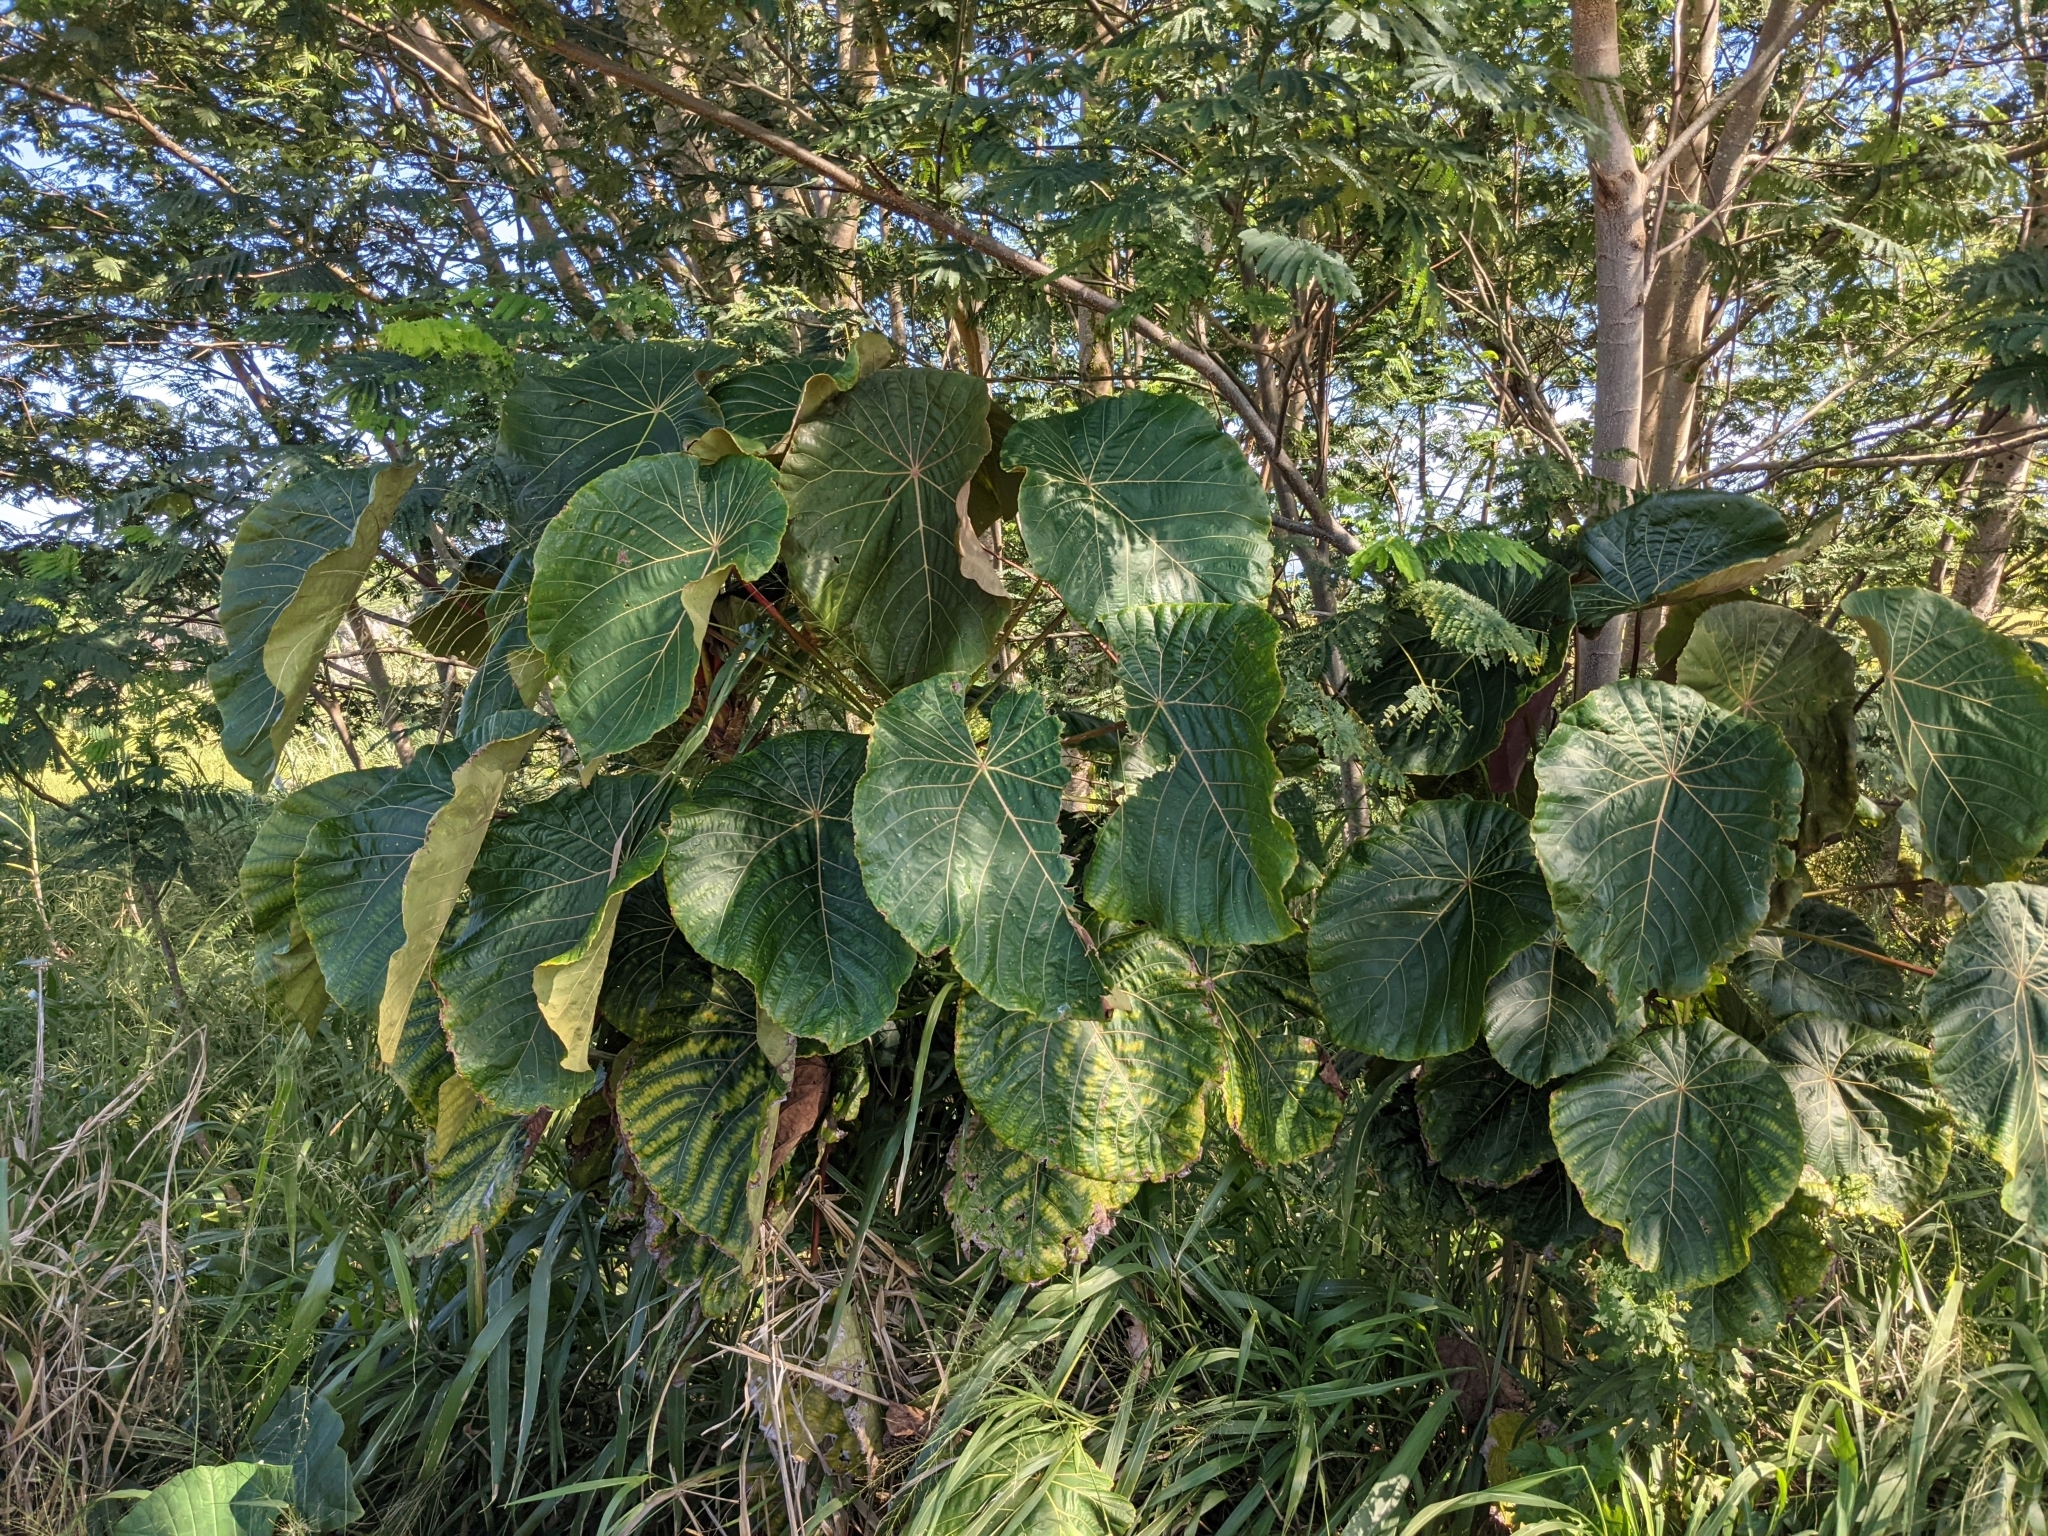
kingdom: Plantae
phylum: Tracheophyta
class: Magnoliopsida
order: Malpighiales
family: Euphorbiaceae
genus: Macaranga
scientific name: Macaranga tanarius
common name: Parasol leaf tree
